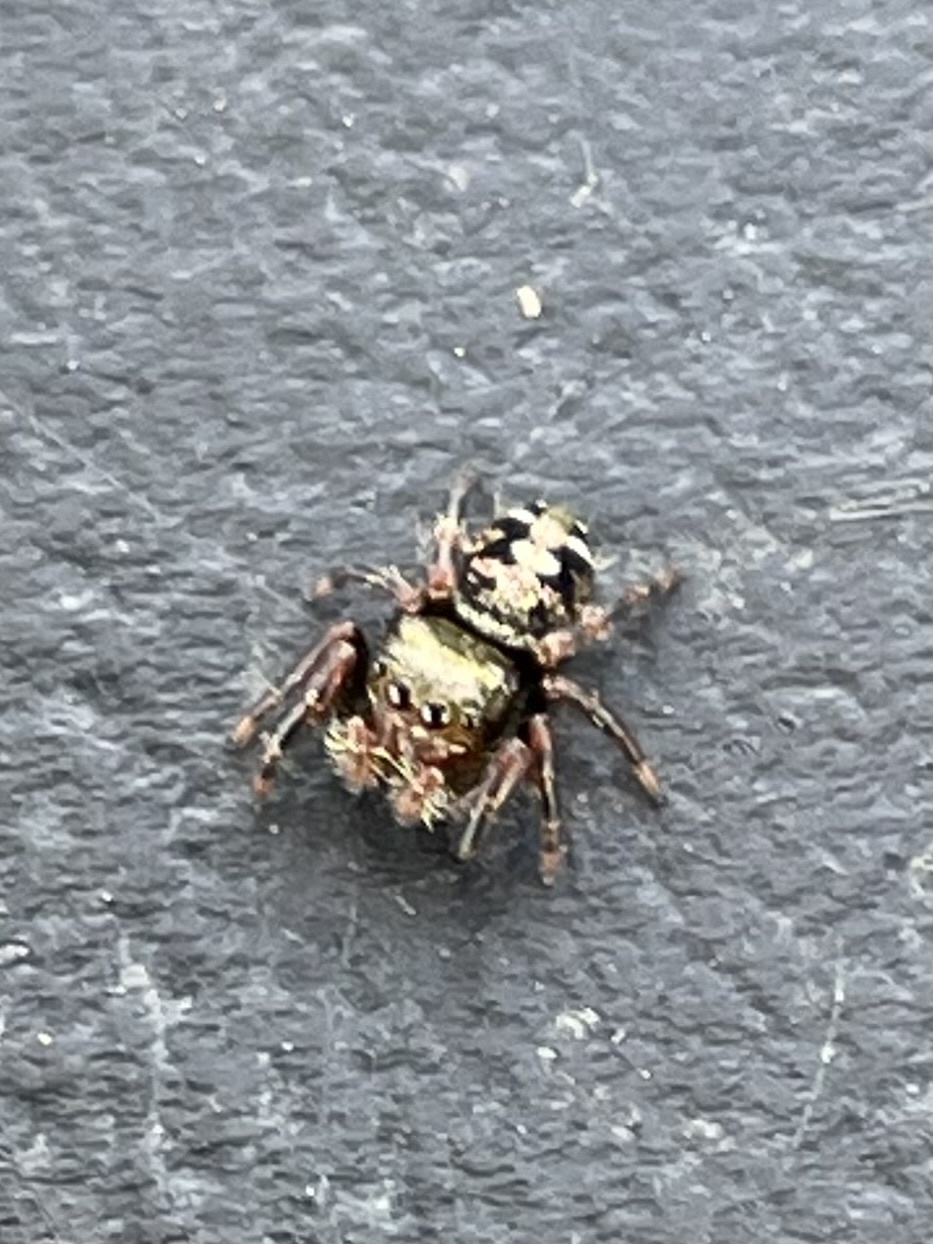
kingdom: Animalia
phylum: Arthropoda
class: Arachnida
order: Araneae
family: Salticidae
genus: Phidippus
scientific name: Phidippus audax
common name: Bold jumper
